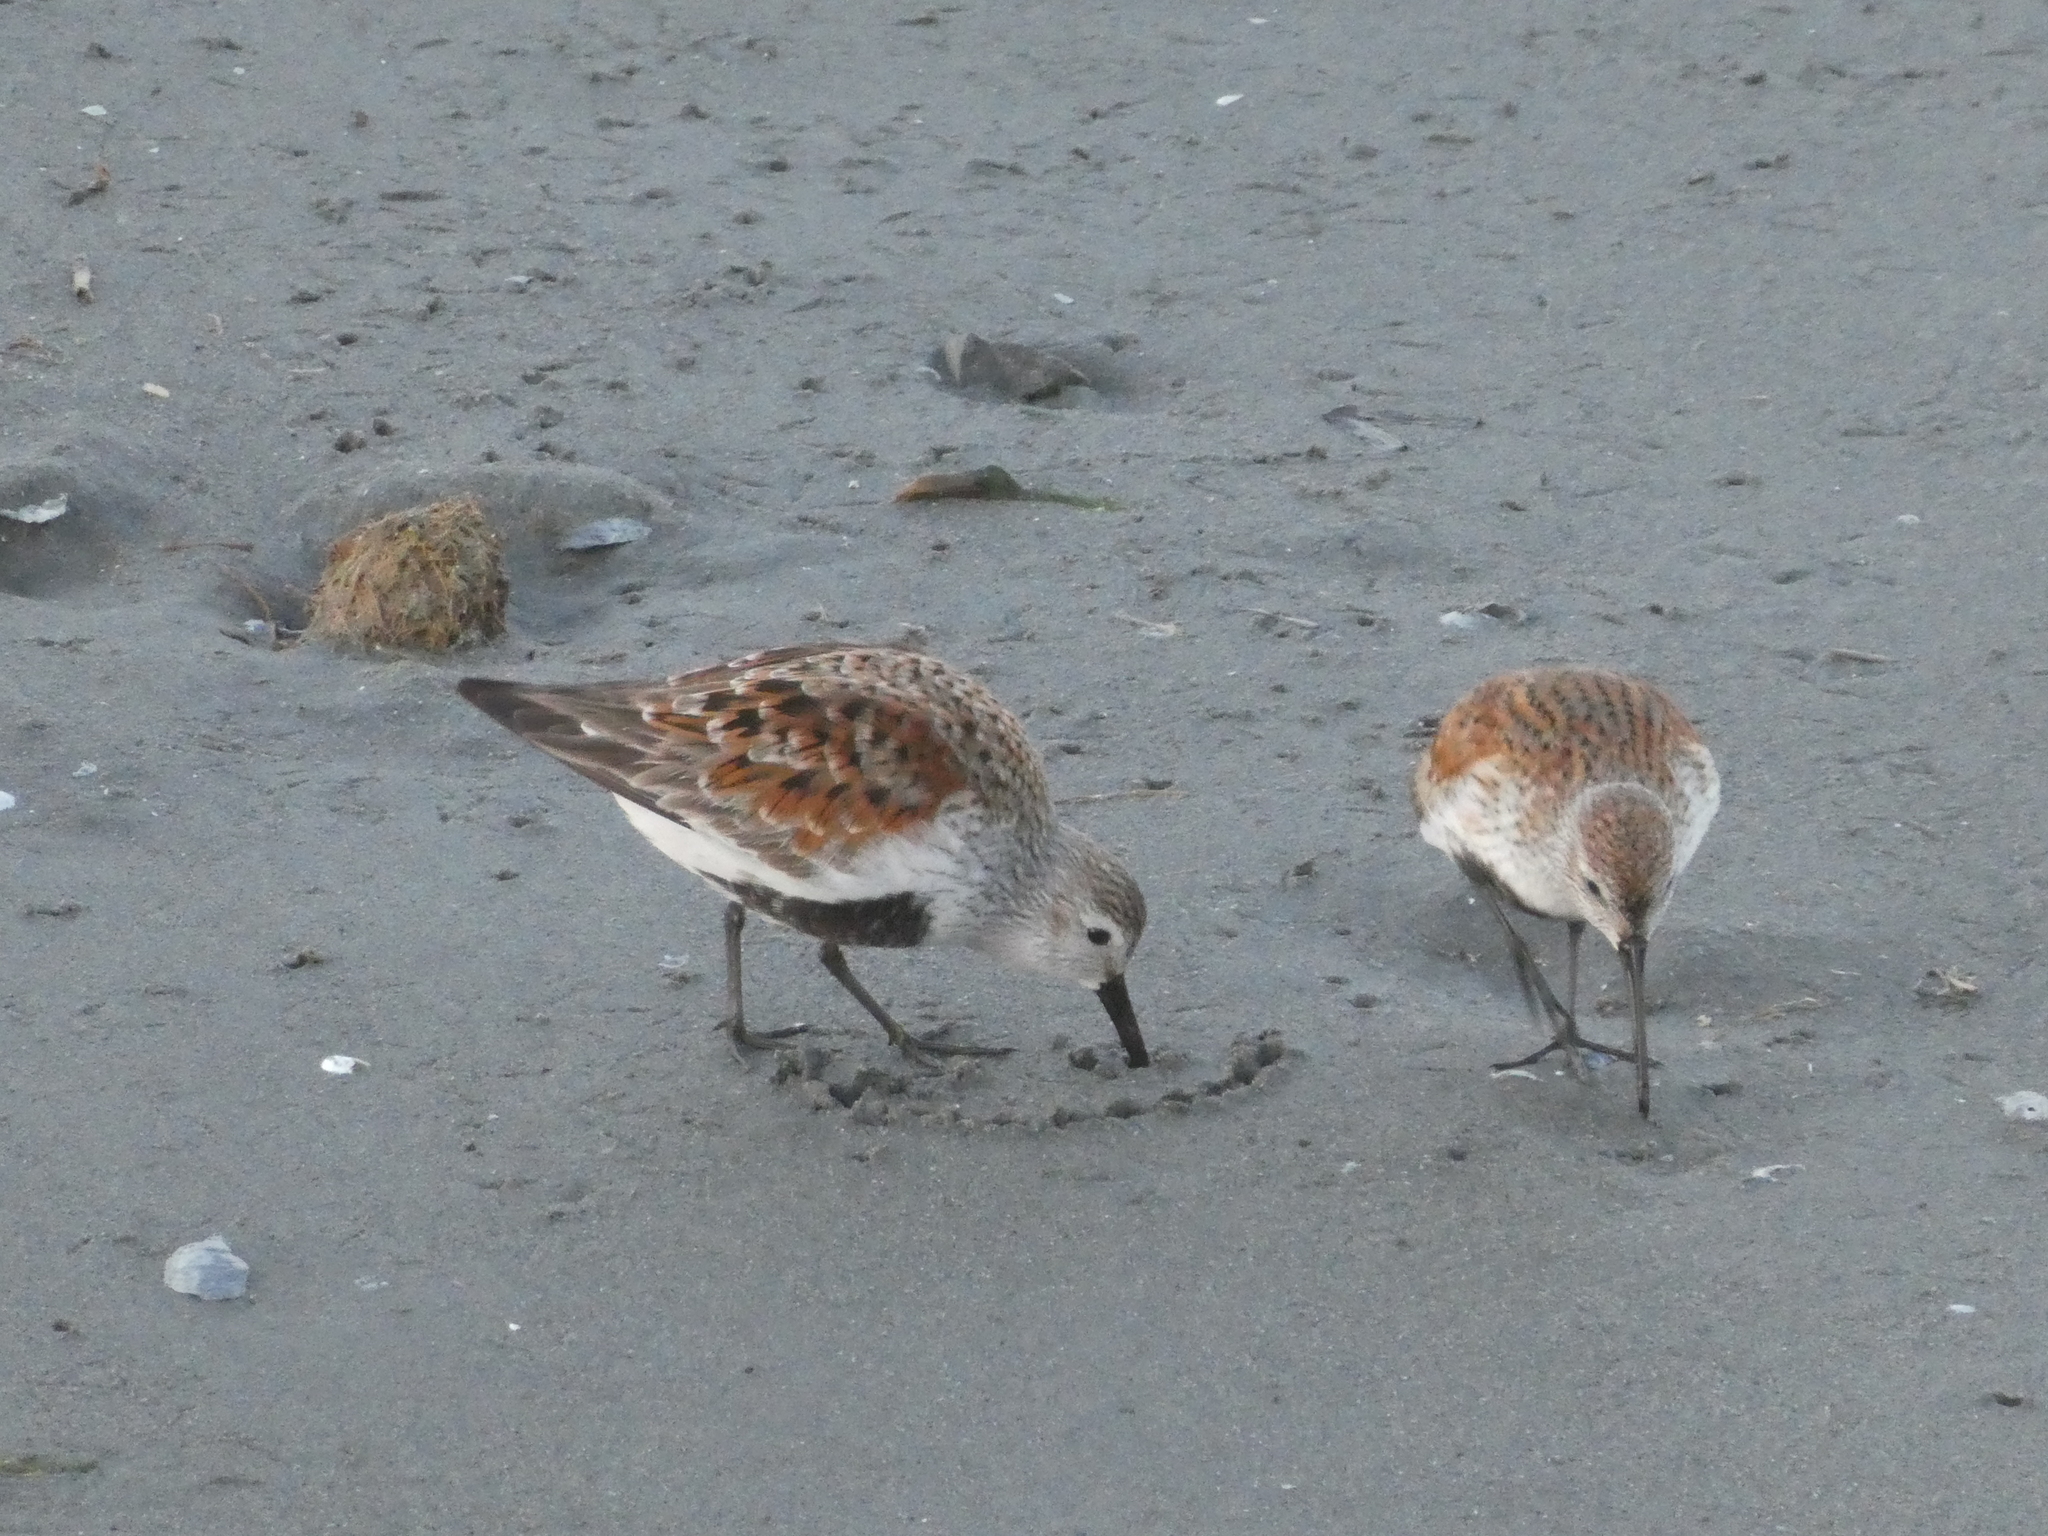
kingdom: Animalia
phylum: Chordata
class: Aves
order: Charadriiformes
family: Scolopacidae
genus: Calidris
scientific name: Calidris alpina
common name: Dunlin
